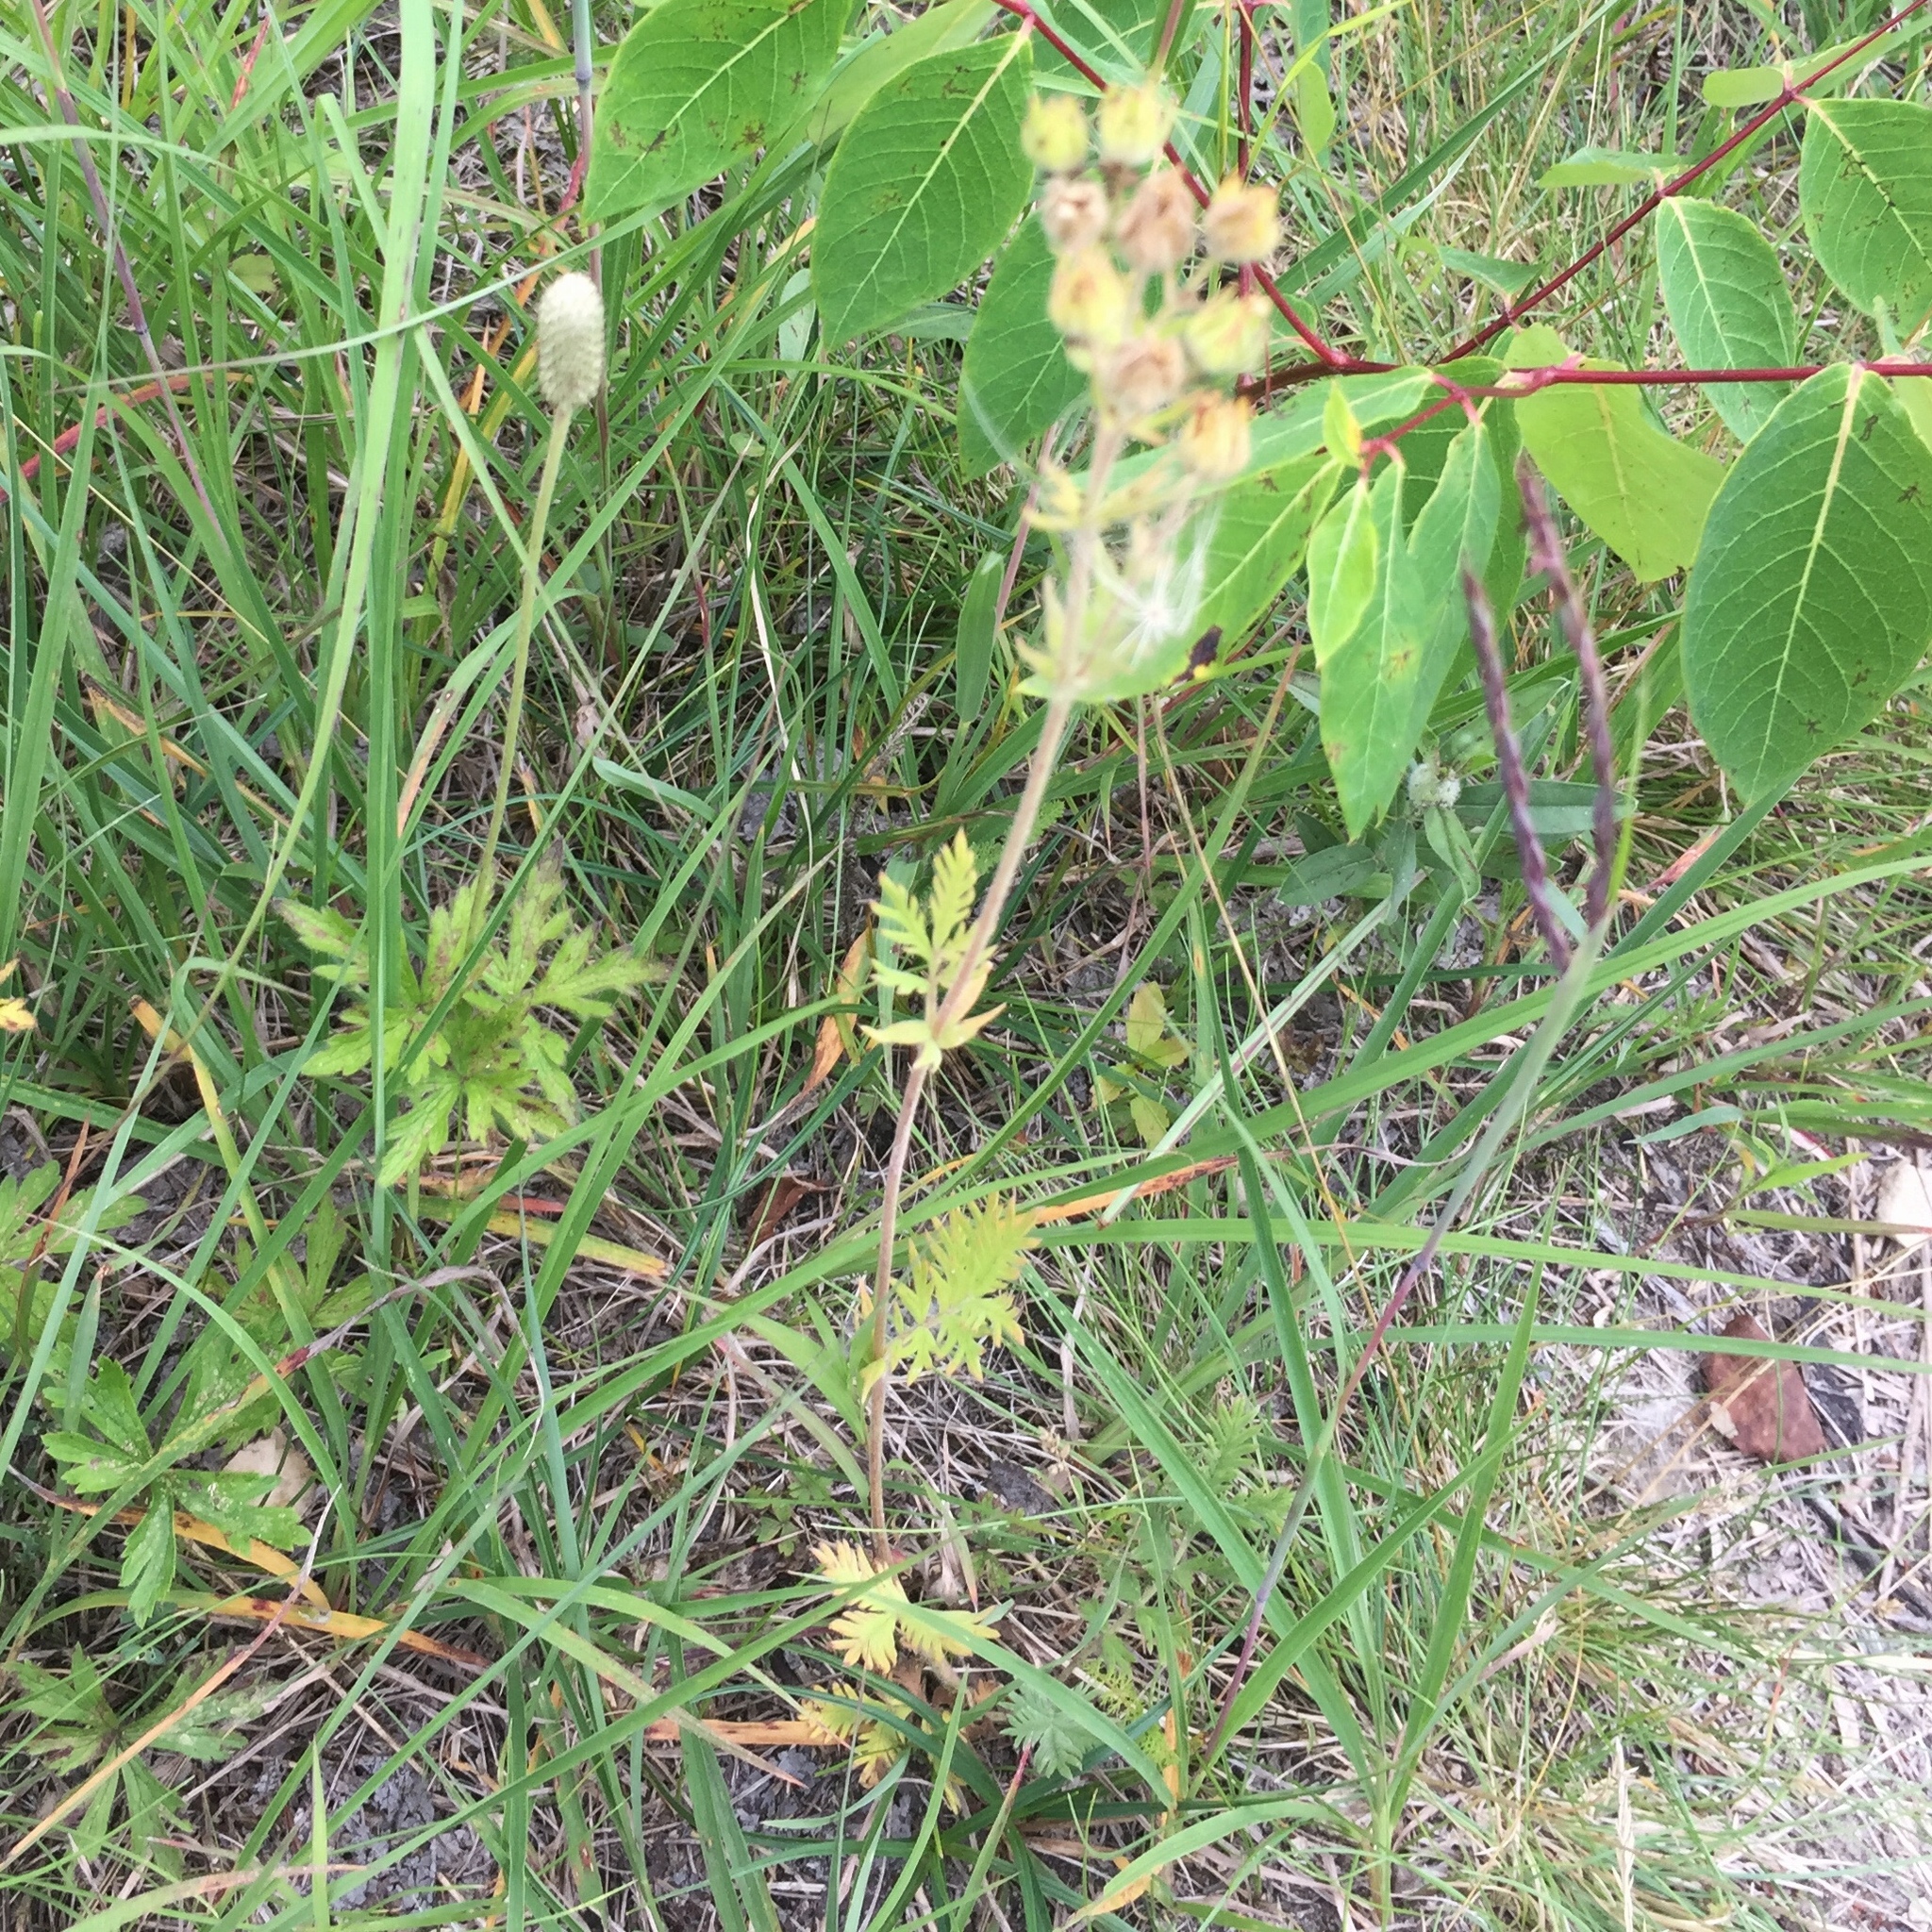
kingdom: Plantae
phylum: Tracheophyta
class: Magnoliopsida
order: Rosales
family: Rosaceae
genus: Potentilla
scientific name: Potentilla pensylvanica
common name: Pennsylvania cinquefoil
